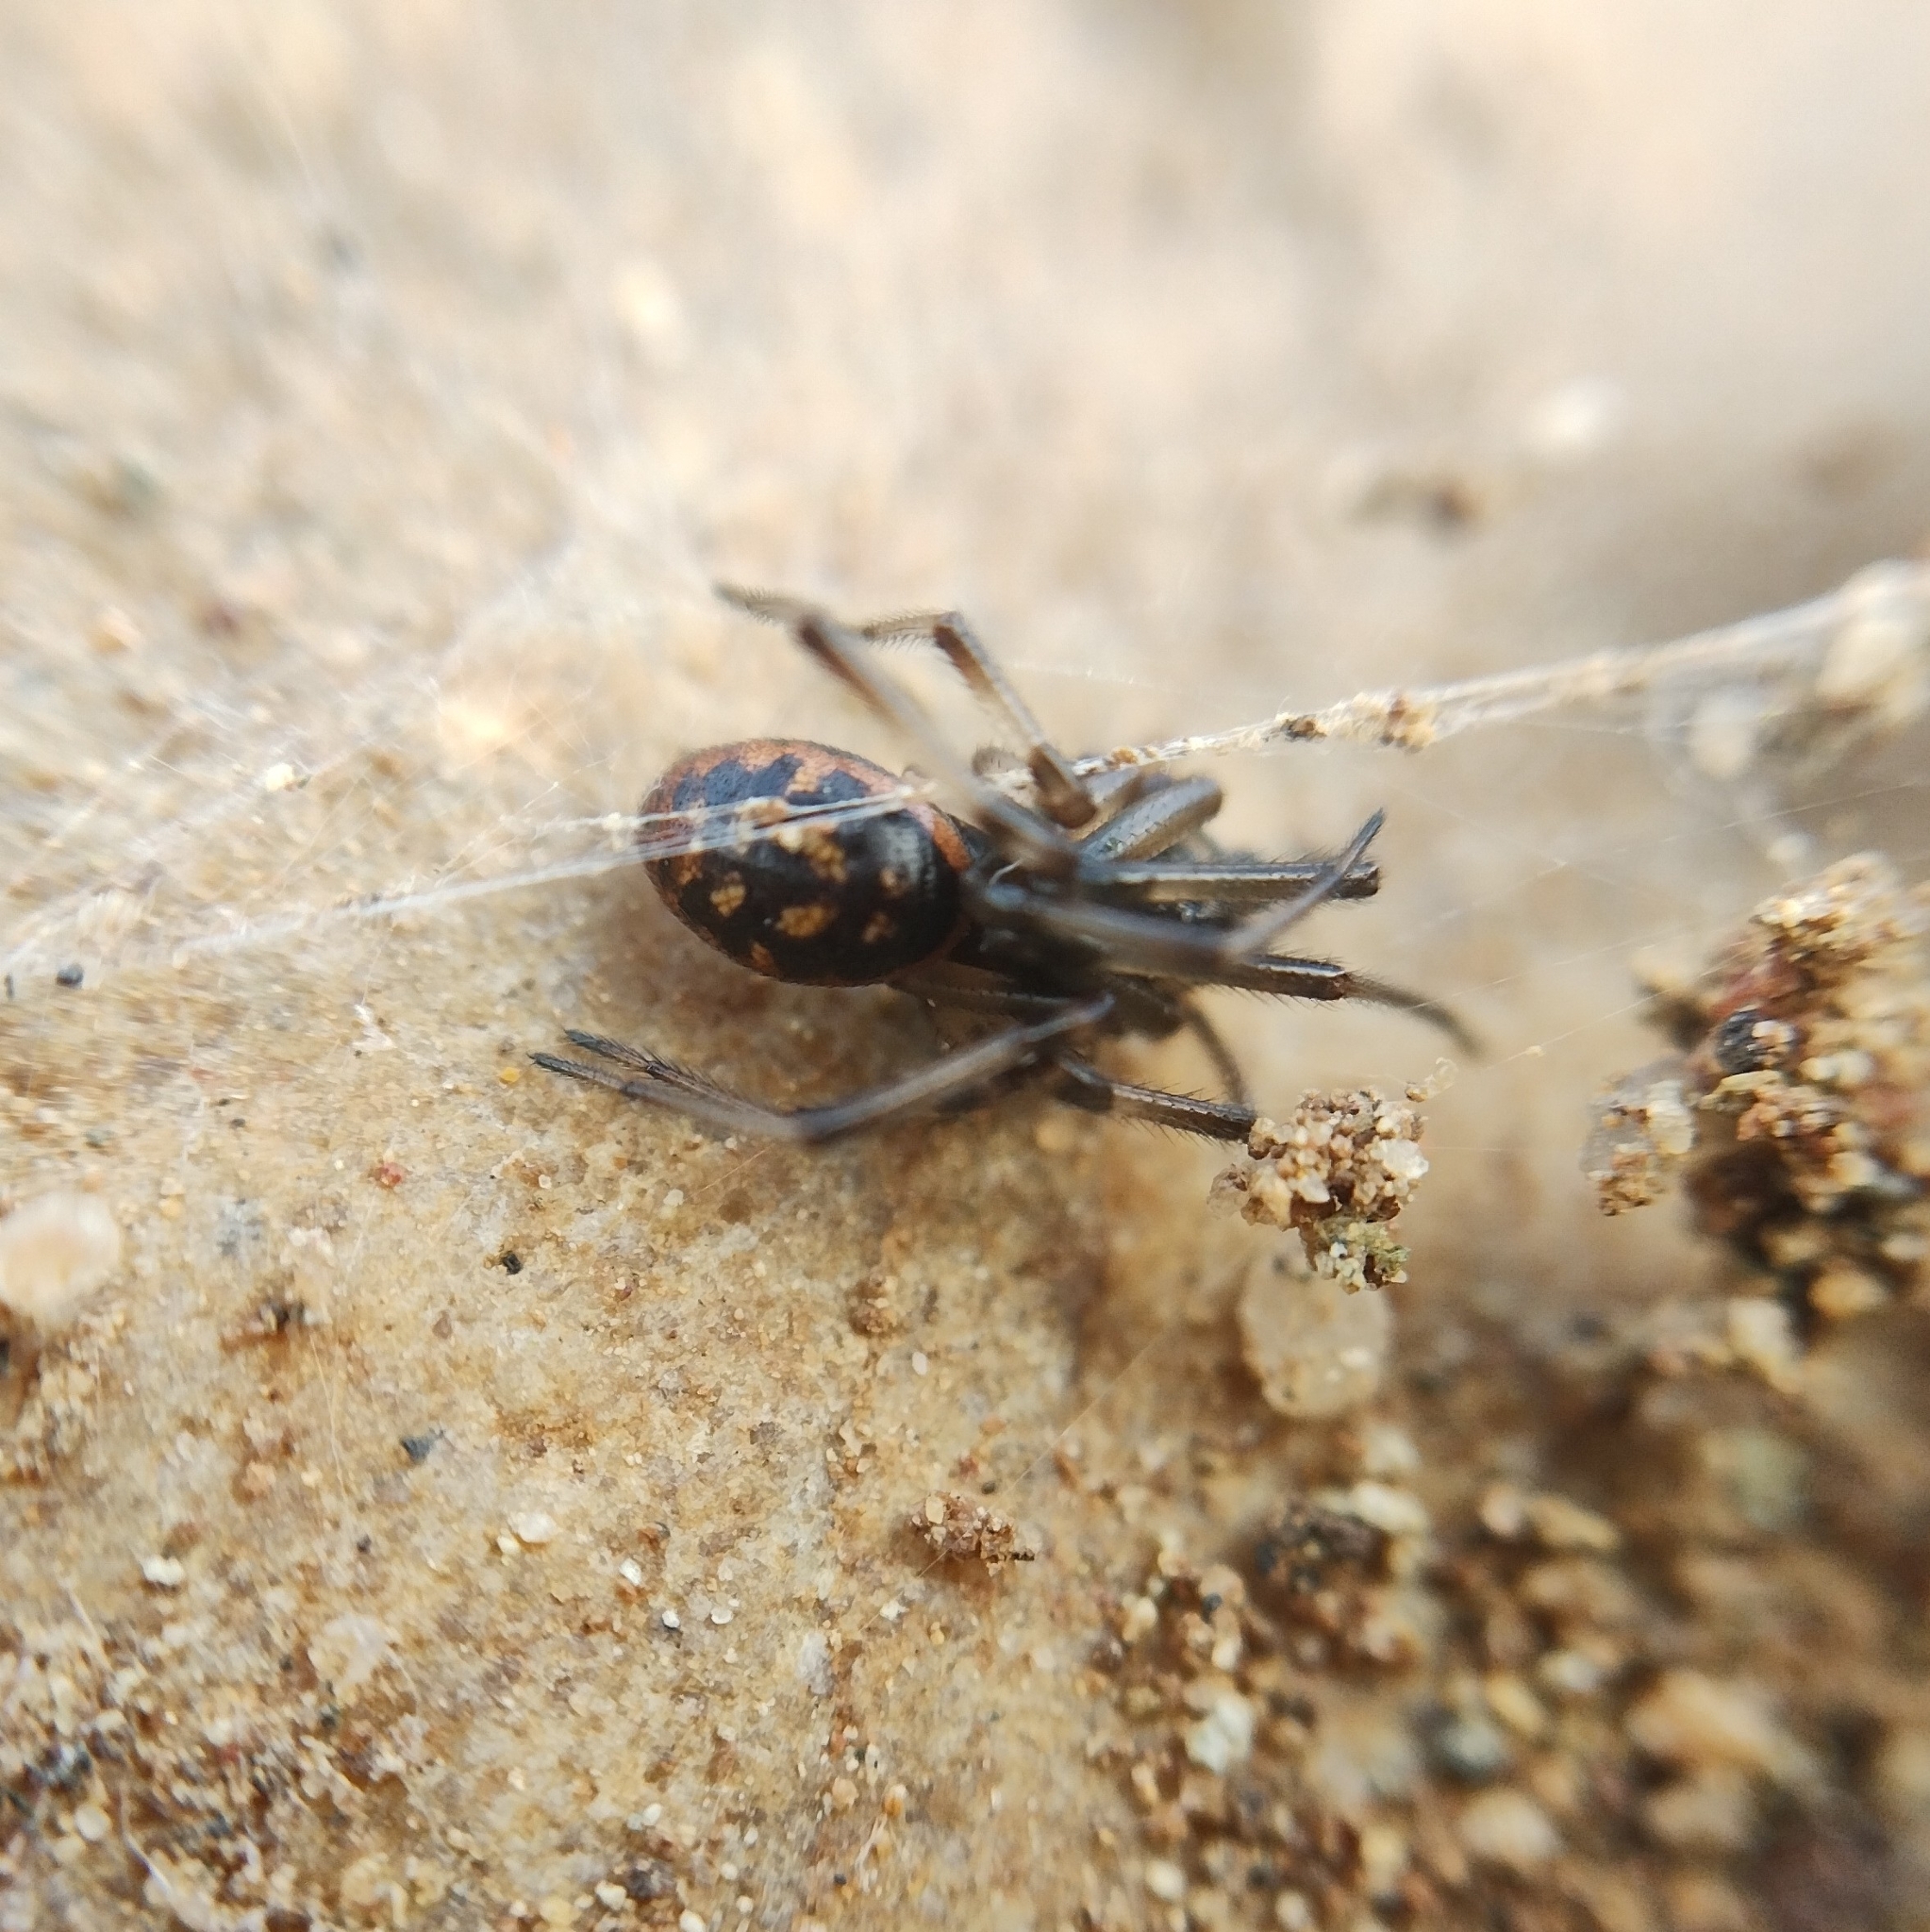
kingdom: Animalia
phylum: Arthropoda
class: Arachnida
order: Araneae
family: Theridiidae
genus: Steatoda
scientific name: Steatoda albomaculata
